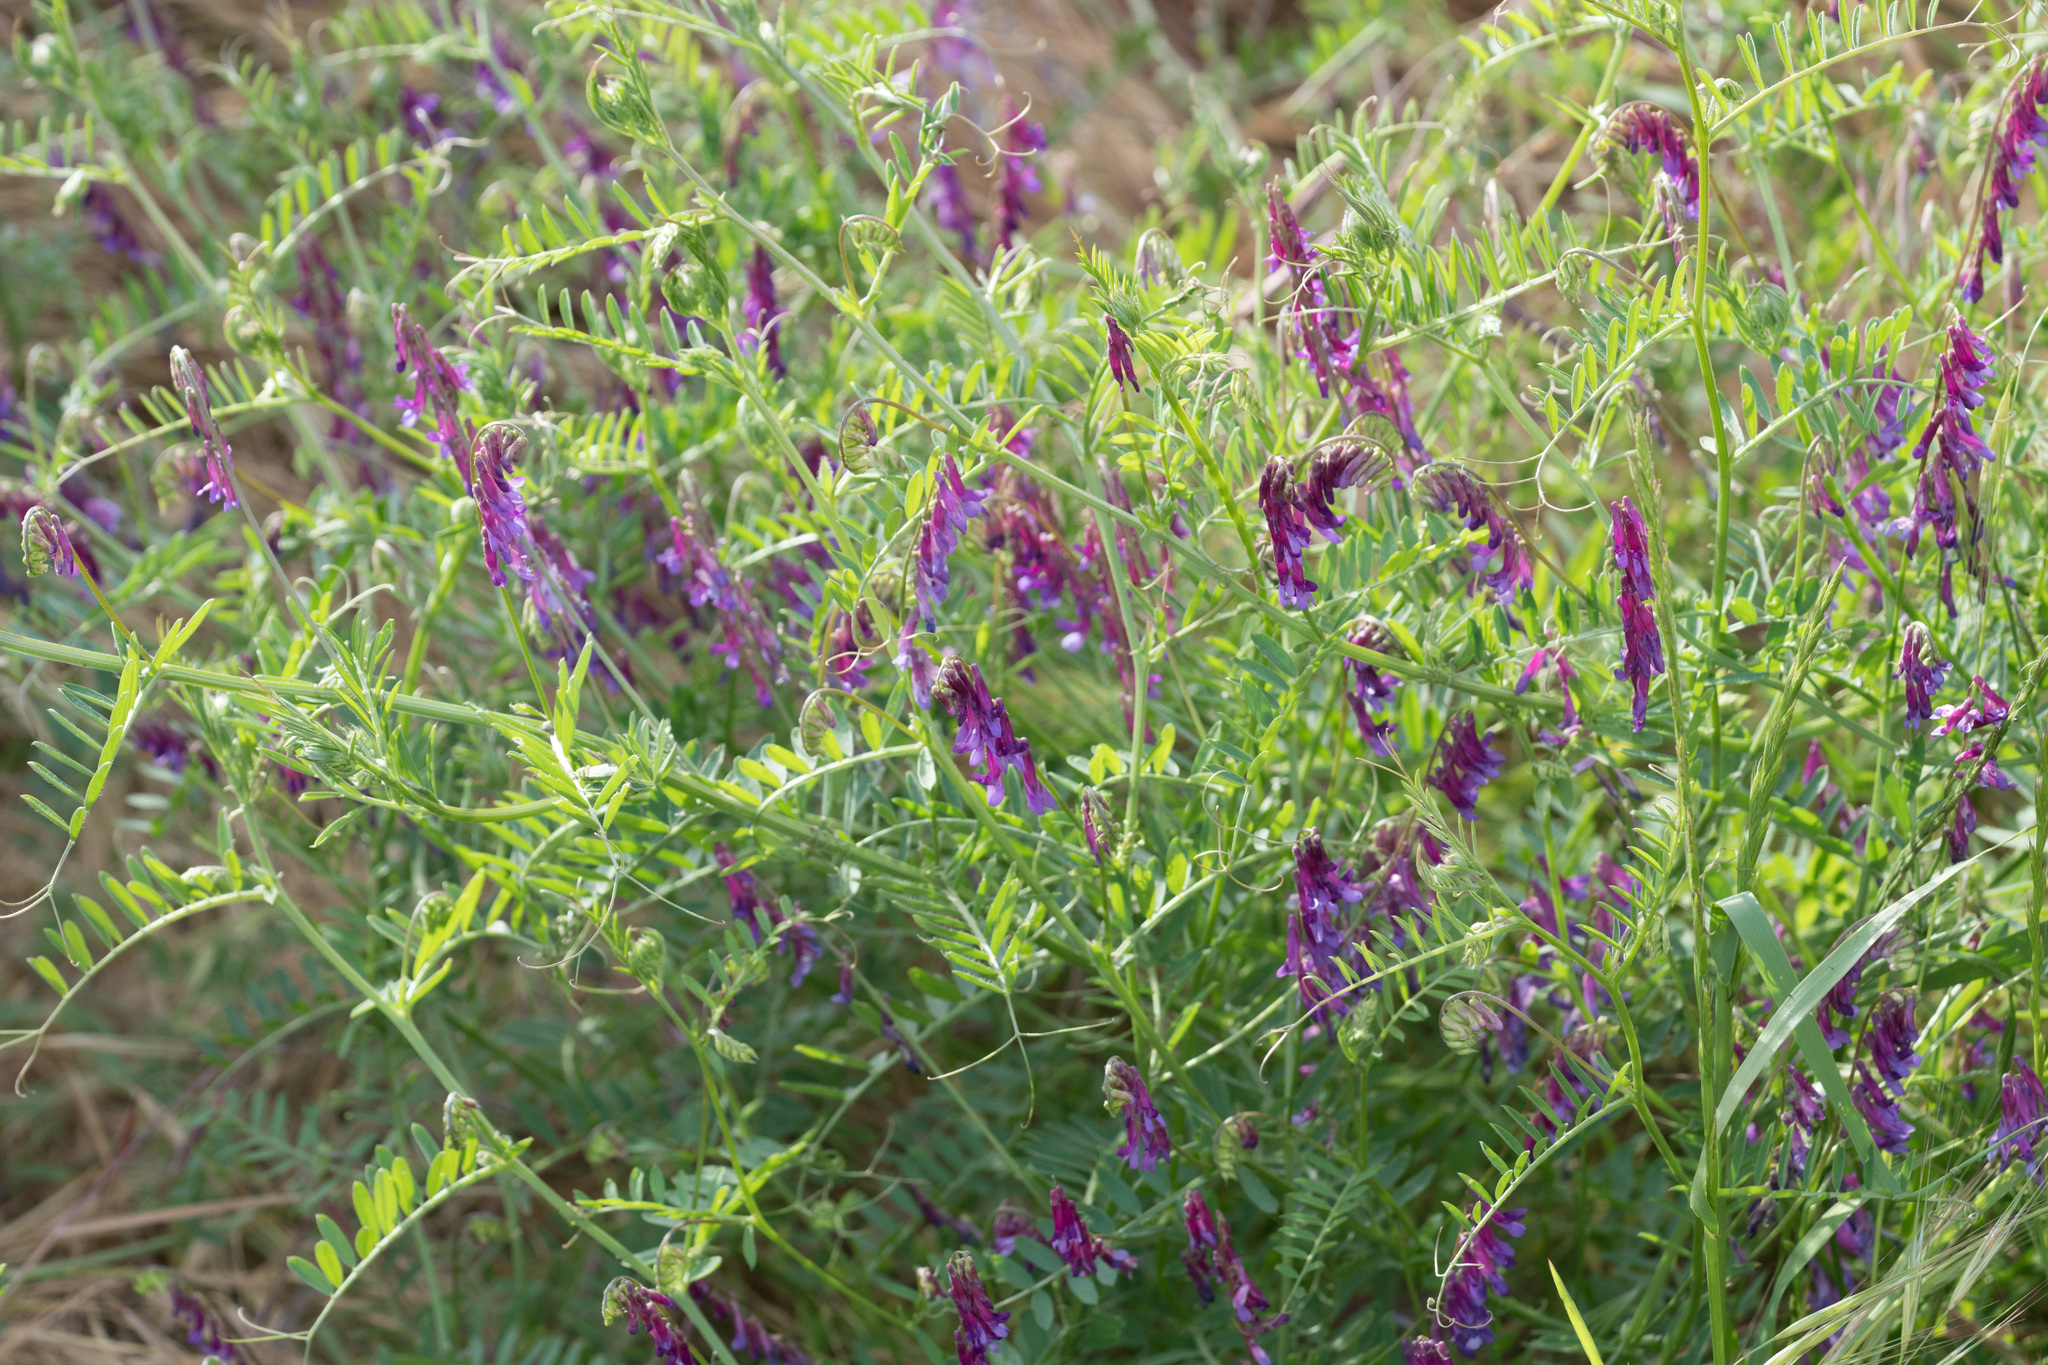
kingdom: Plantae
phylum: Tracheophyta
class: Magnoliopsida
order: Fabales
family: Fabaceae
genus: Vicia
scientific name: Vicia villosa
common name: Fodder vetch
